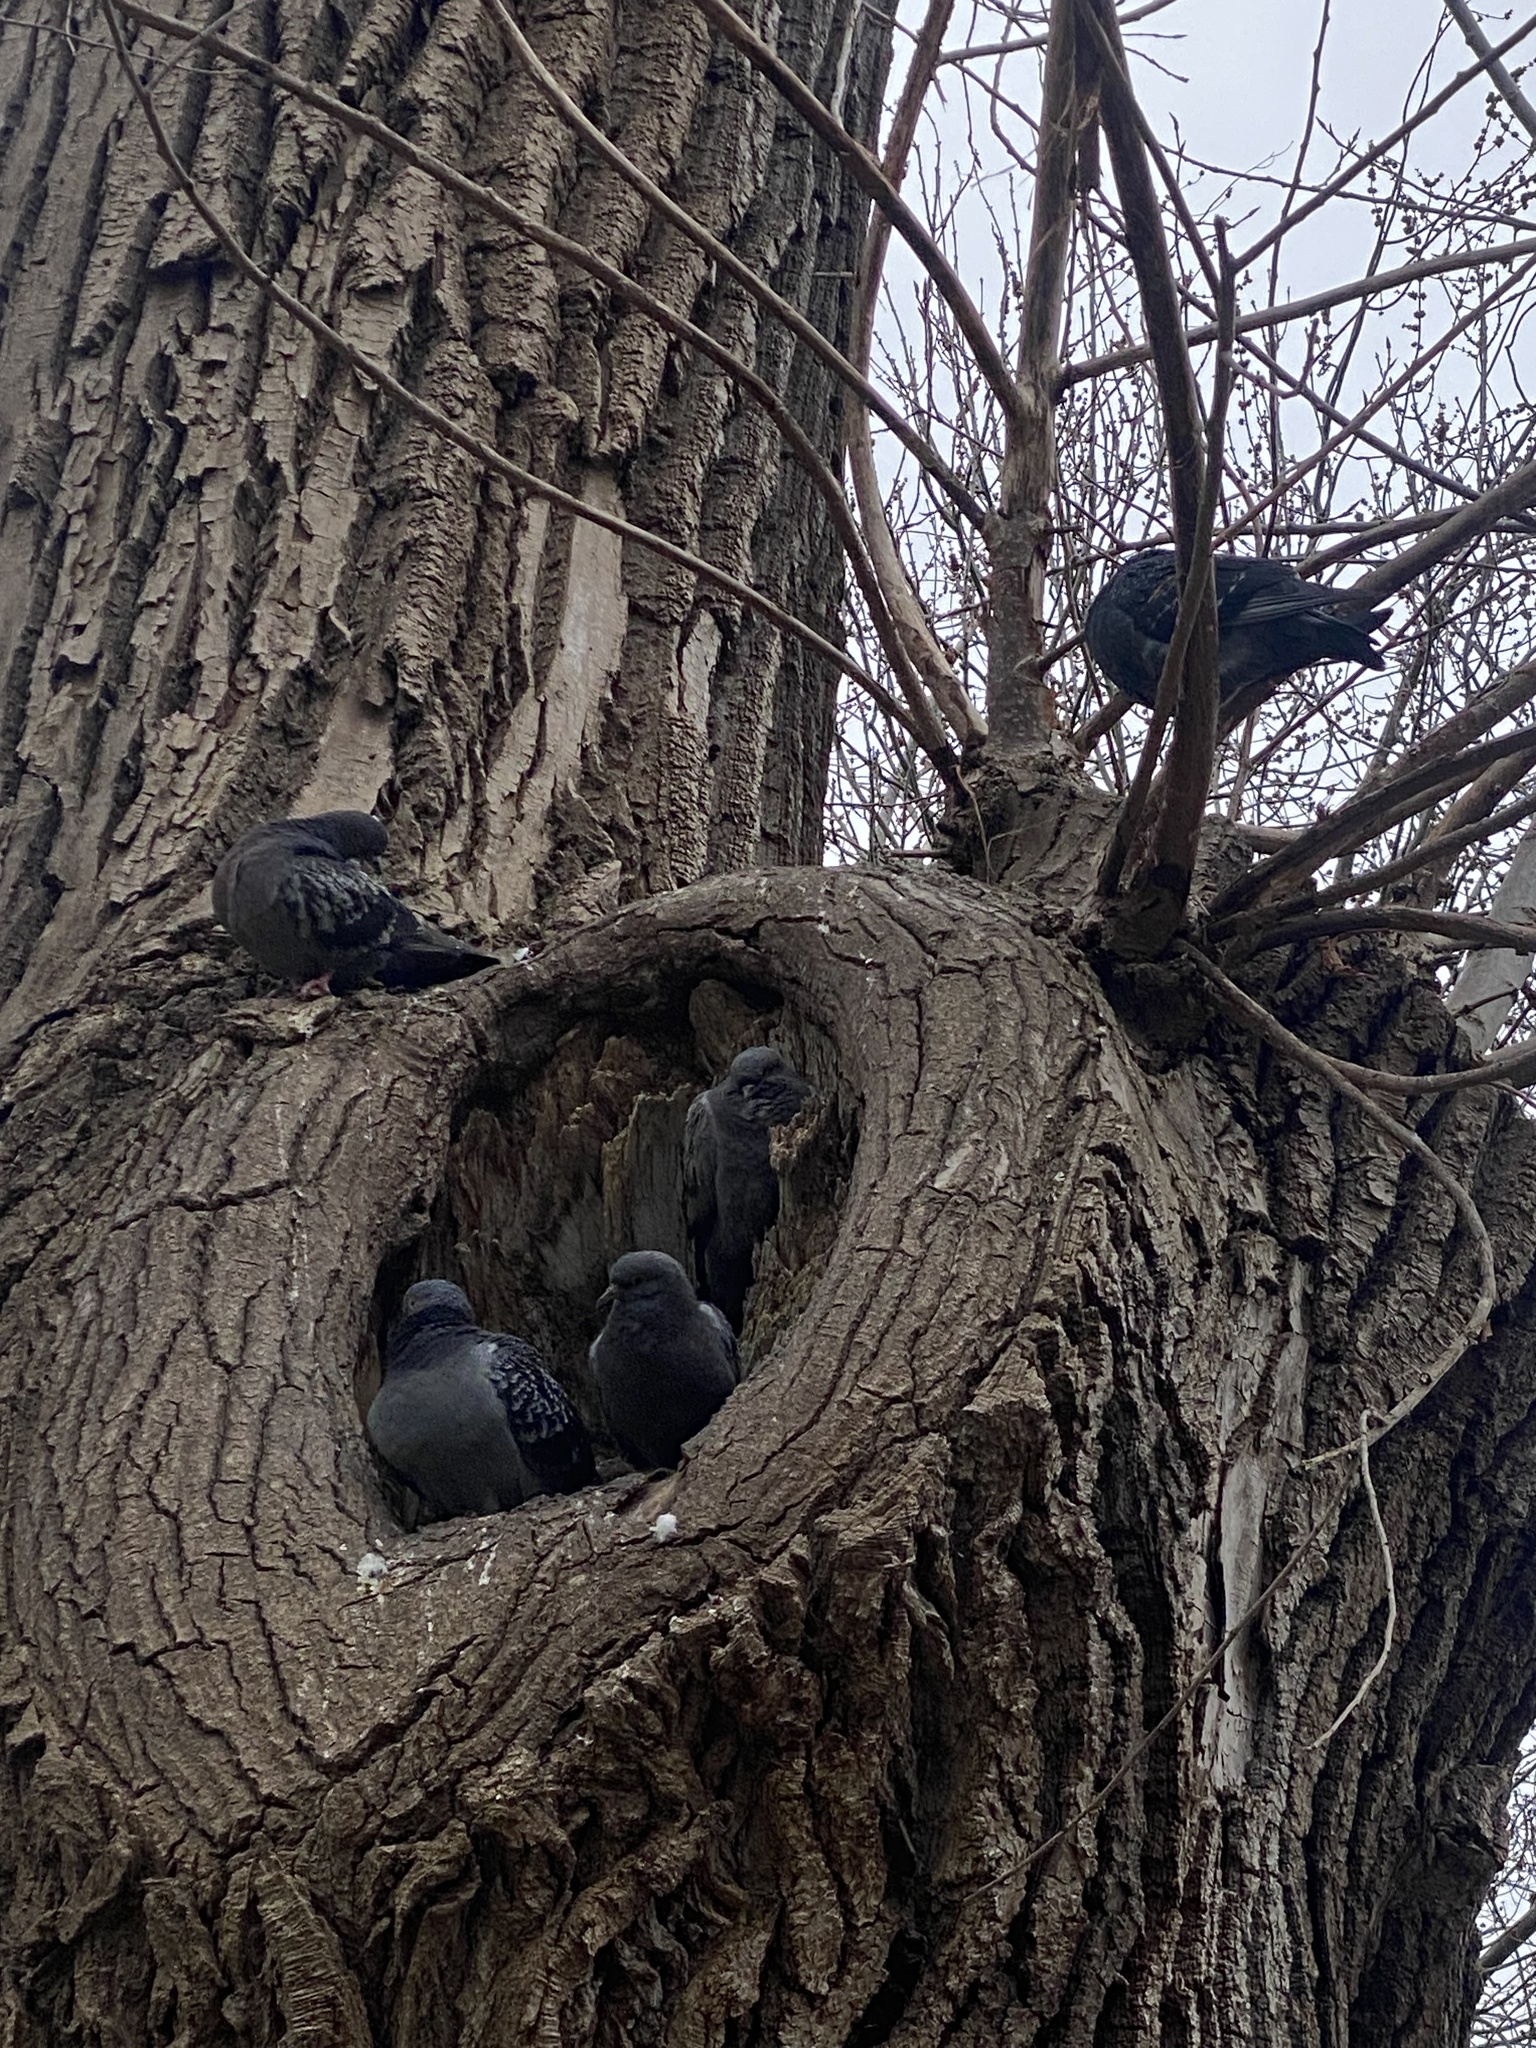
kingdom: Animalia
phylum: Chordata
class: Aves
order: Columbiformes
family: Columbidae
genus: Columba
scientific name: Columba livia
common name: Rock pigeon
